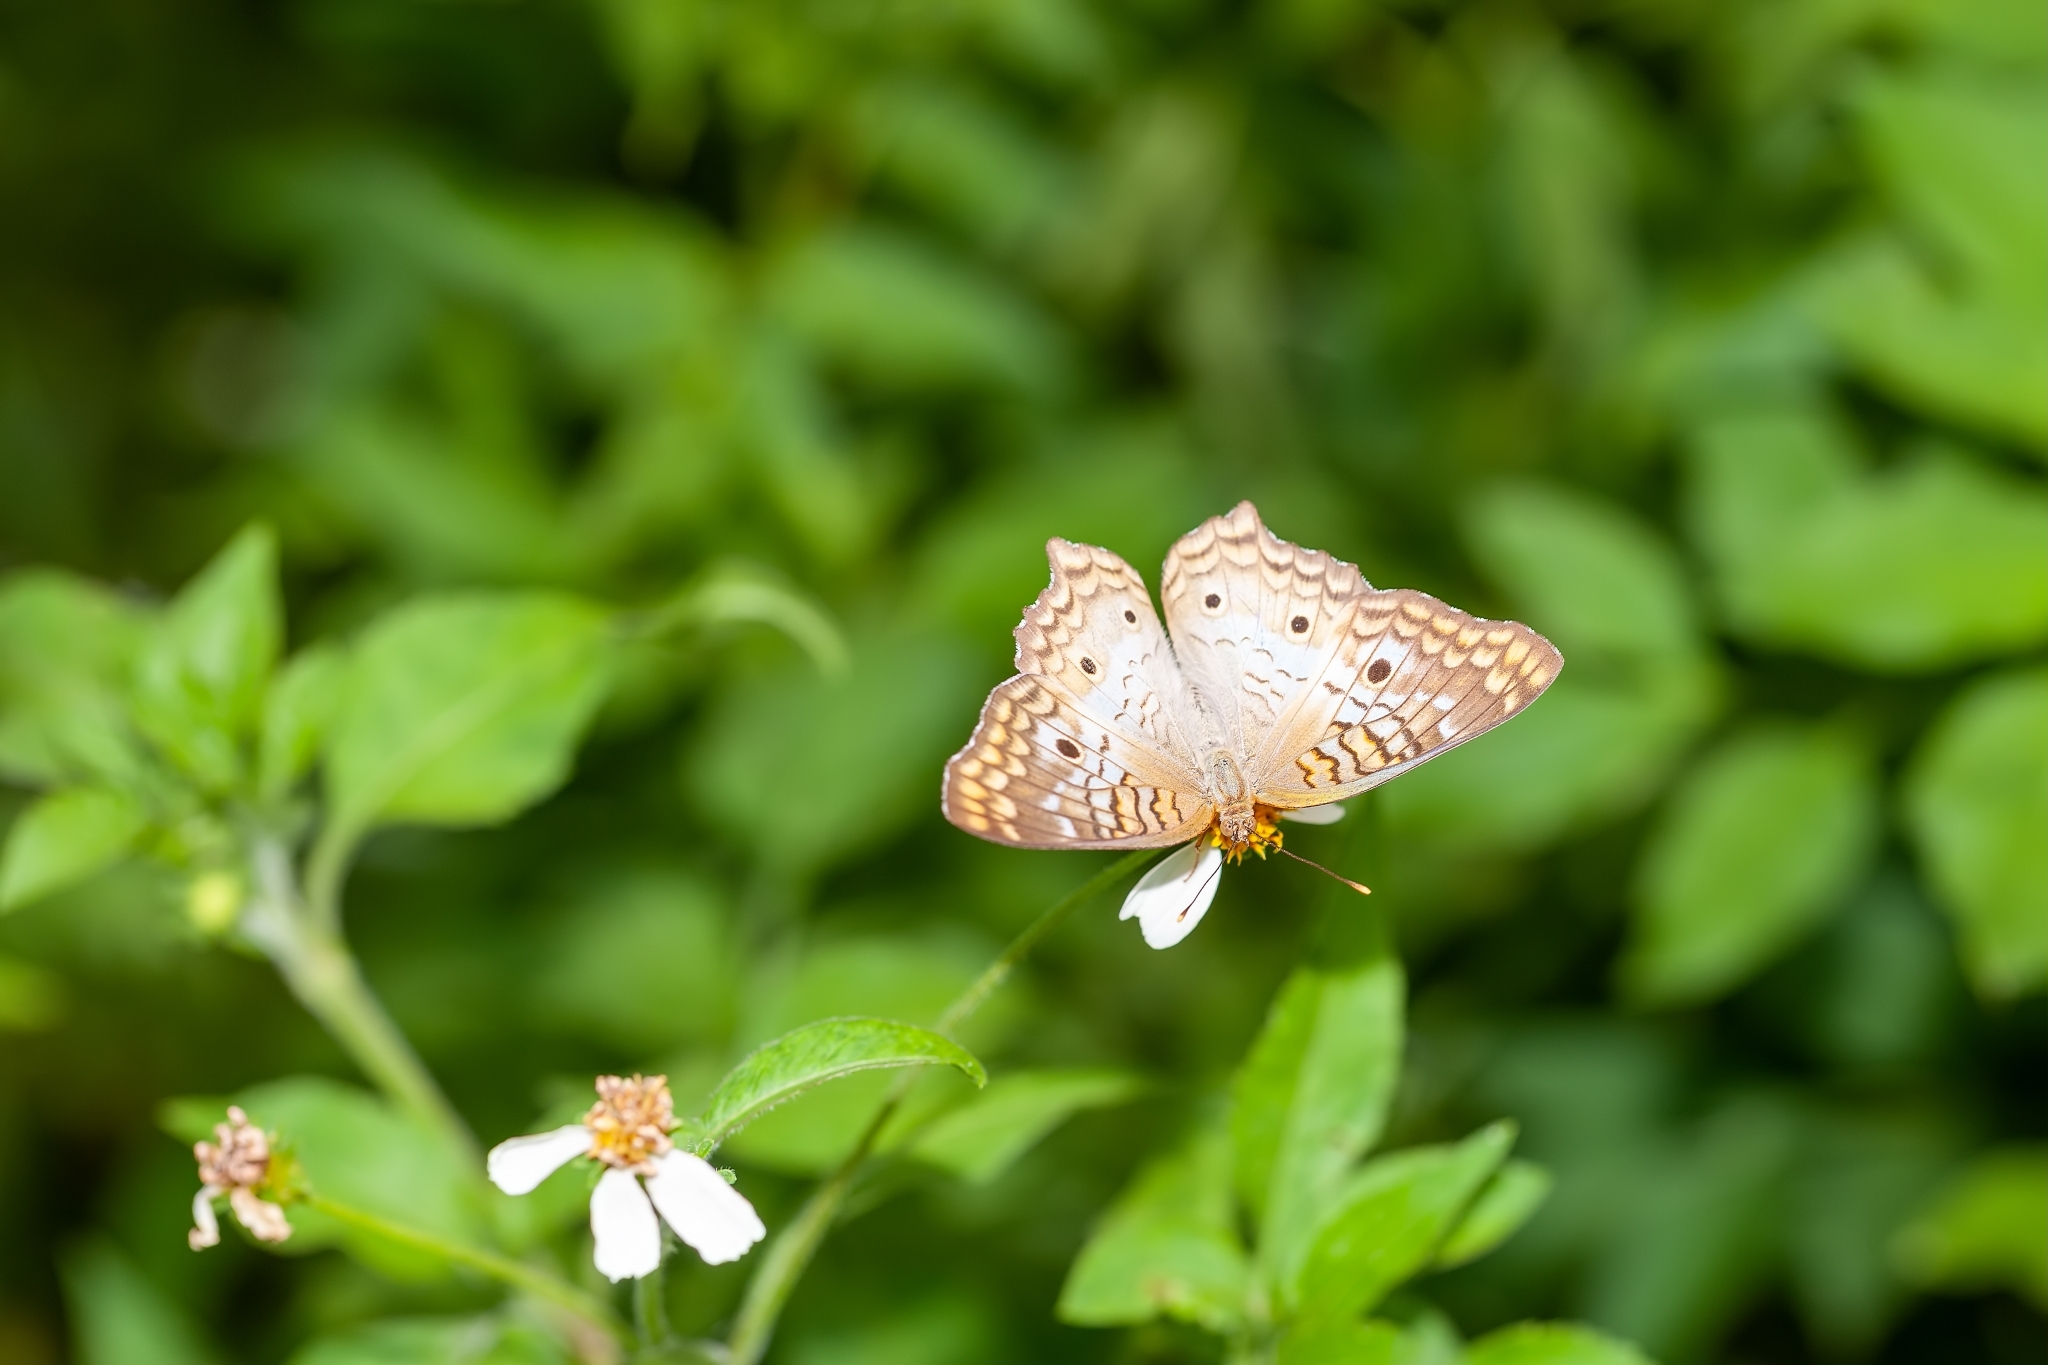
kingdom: Animalia
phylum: Arthropoda
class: Insecta
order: Lepidoptera
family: Nymphalidae
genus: Anartia
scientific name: Anartia jatrophae
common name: White peacock
